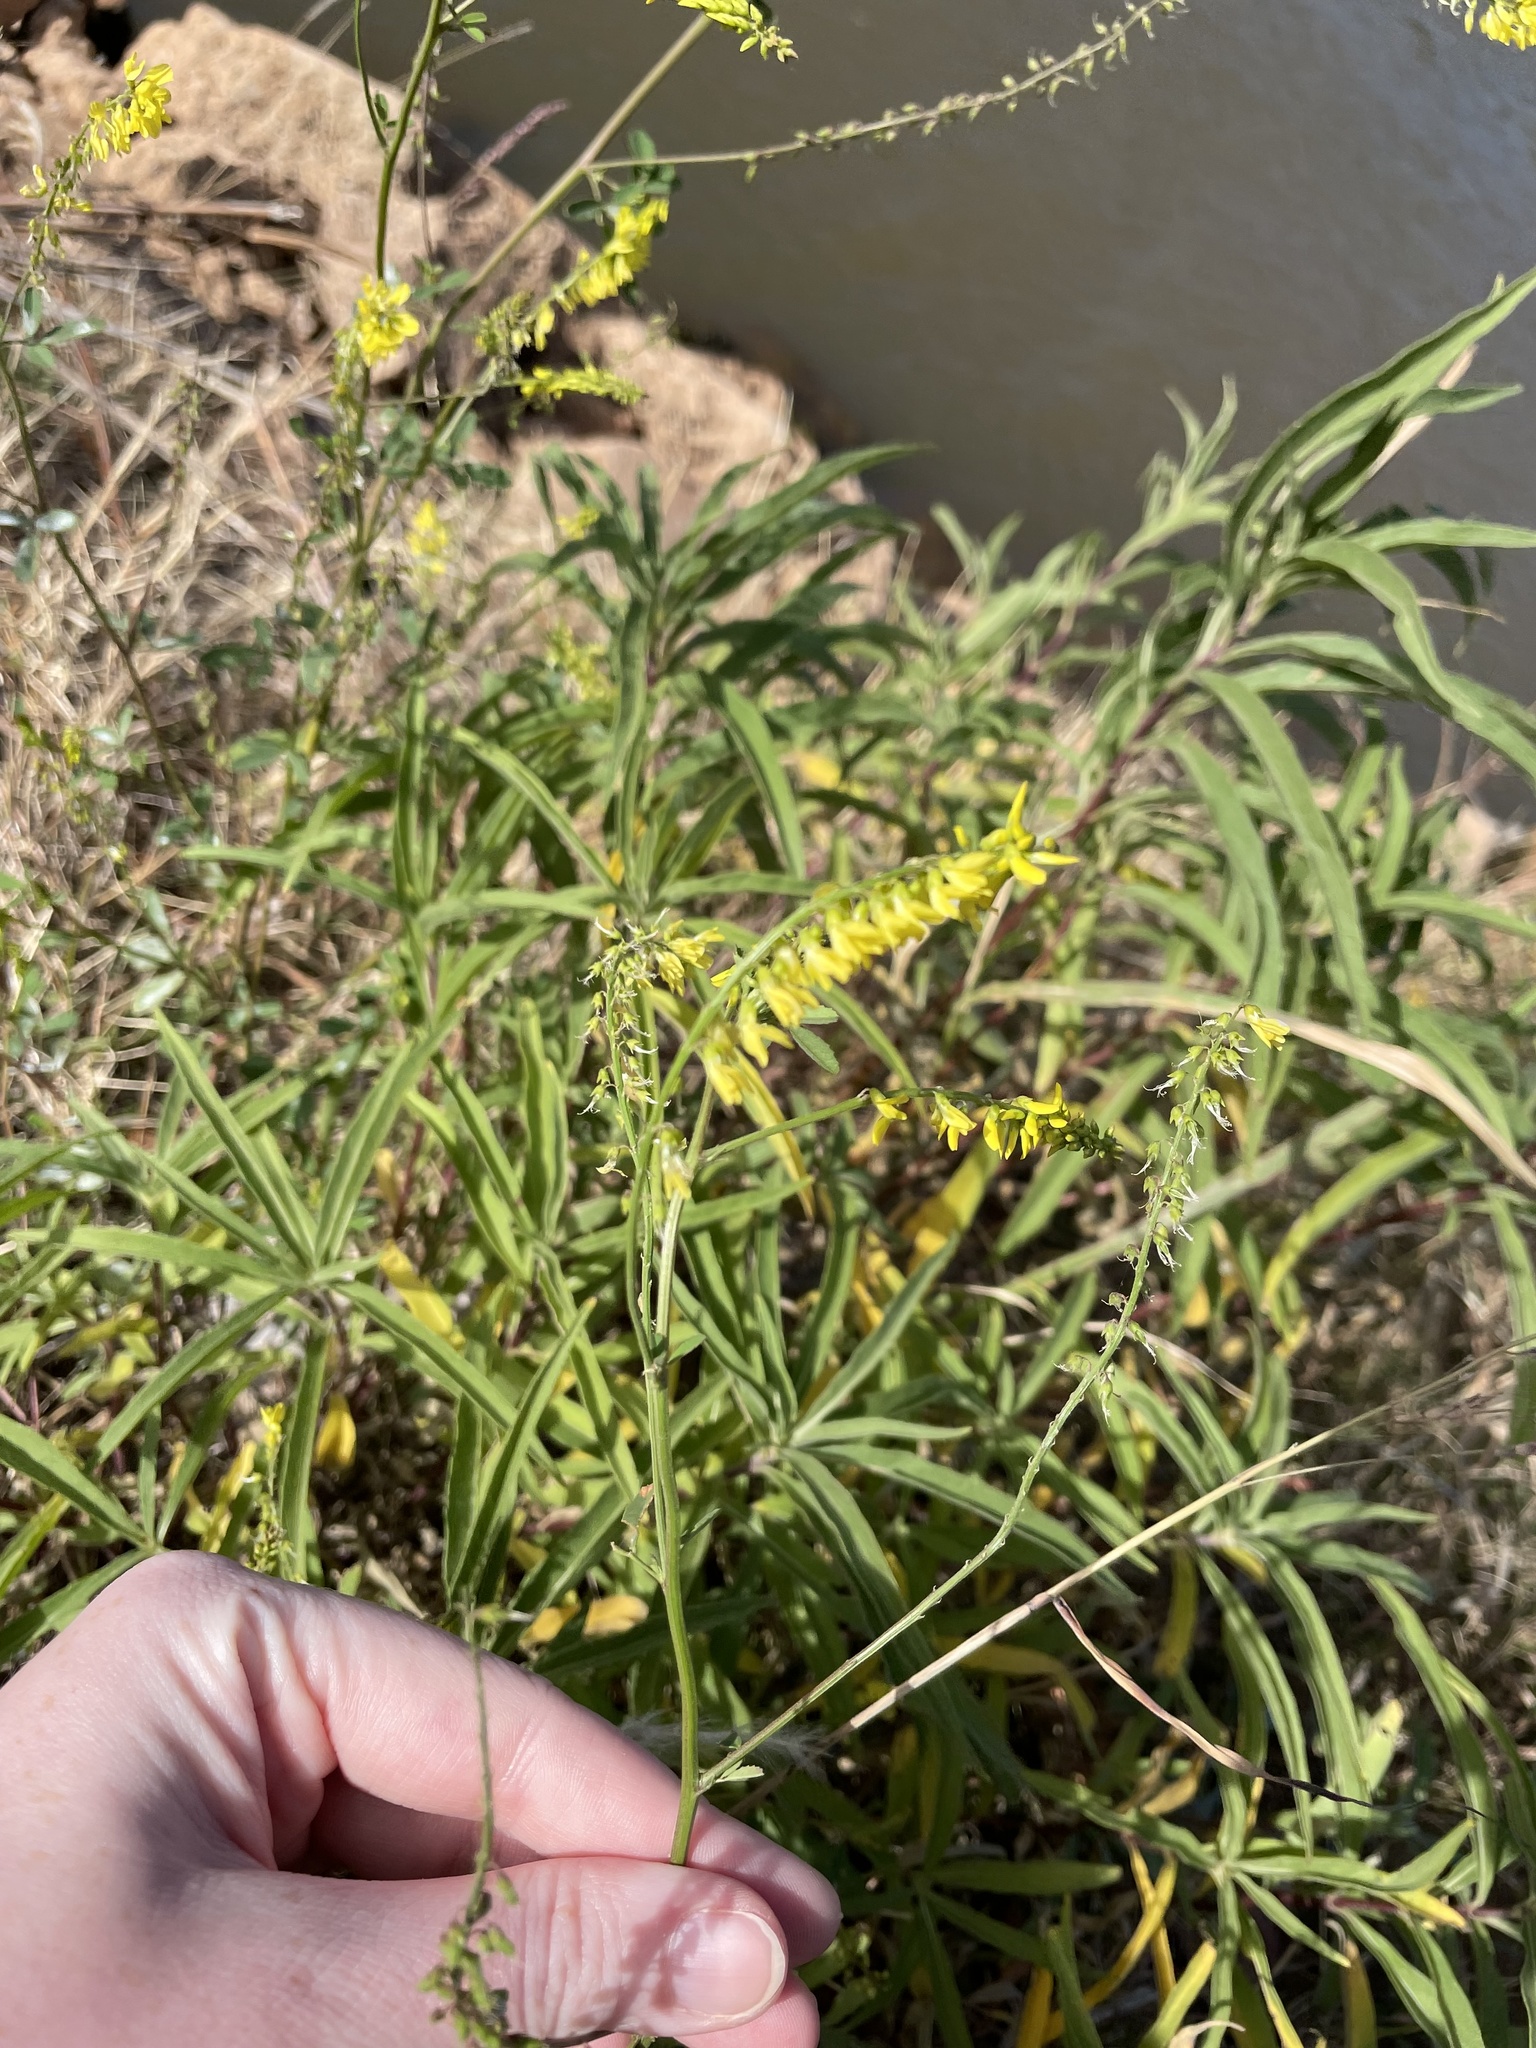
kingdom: Plantae
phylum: Tracheophyta
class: Magnoliopsida
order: Fabales
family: Fabaceae
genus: Melilotus
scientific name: Melilotus officinalis
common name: Sweetclover
